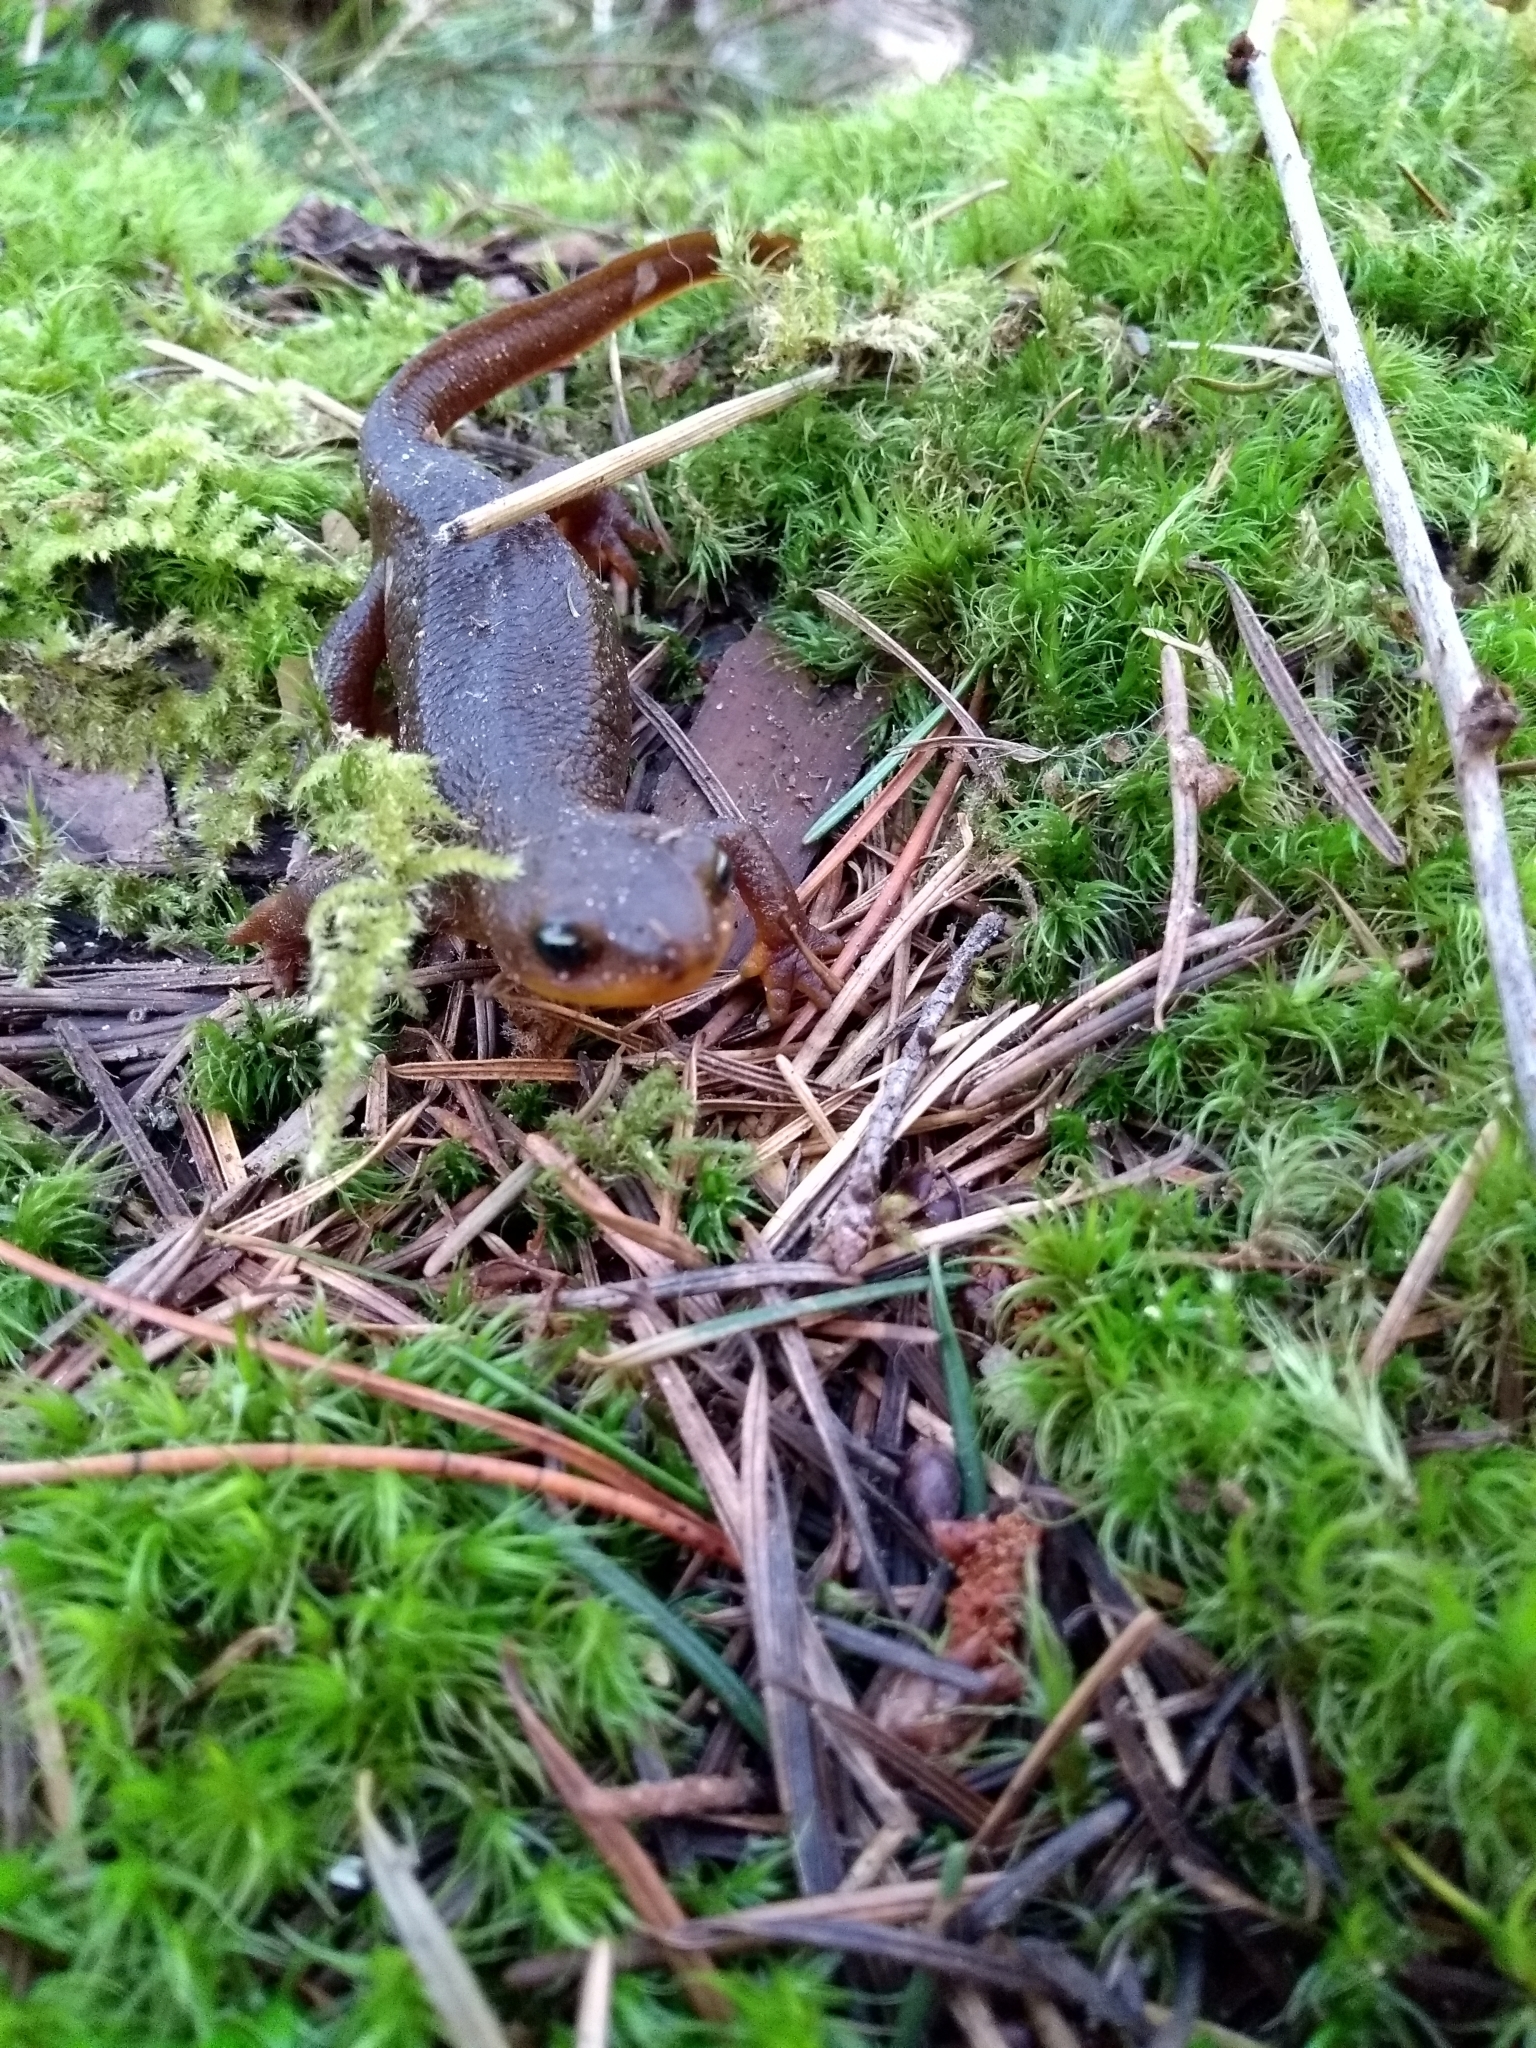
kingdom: Animalia
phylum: Chordata
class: Amphibia
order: Caudata
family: Salamandridae
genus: Taricha
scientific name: Taricha granulosa
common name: Roughskin newt
